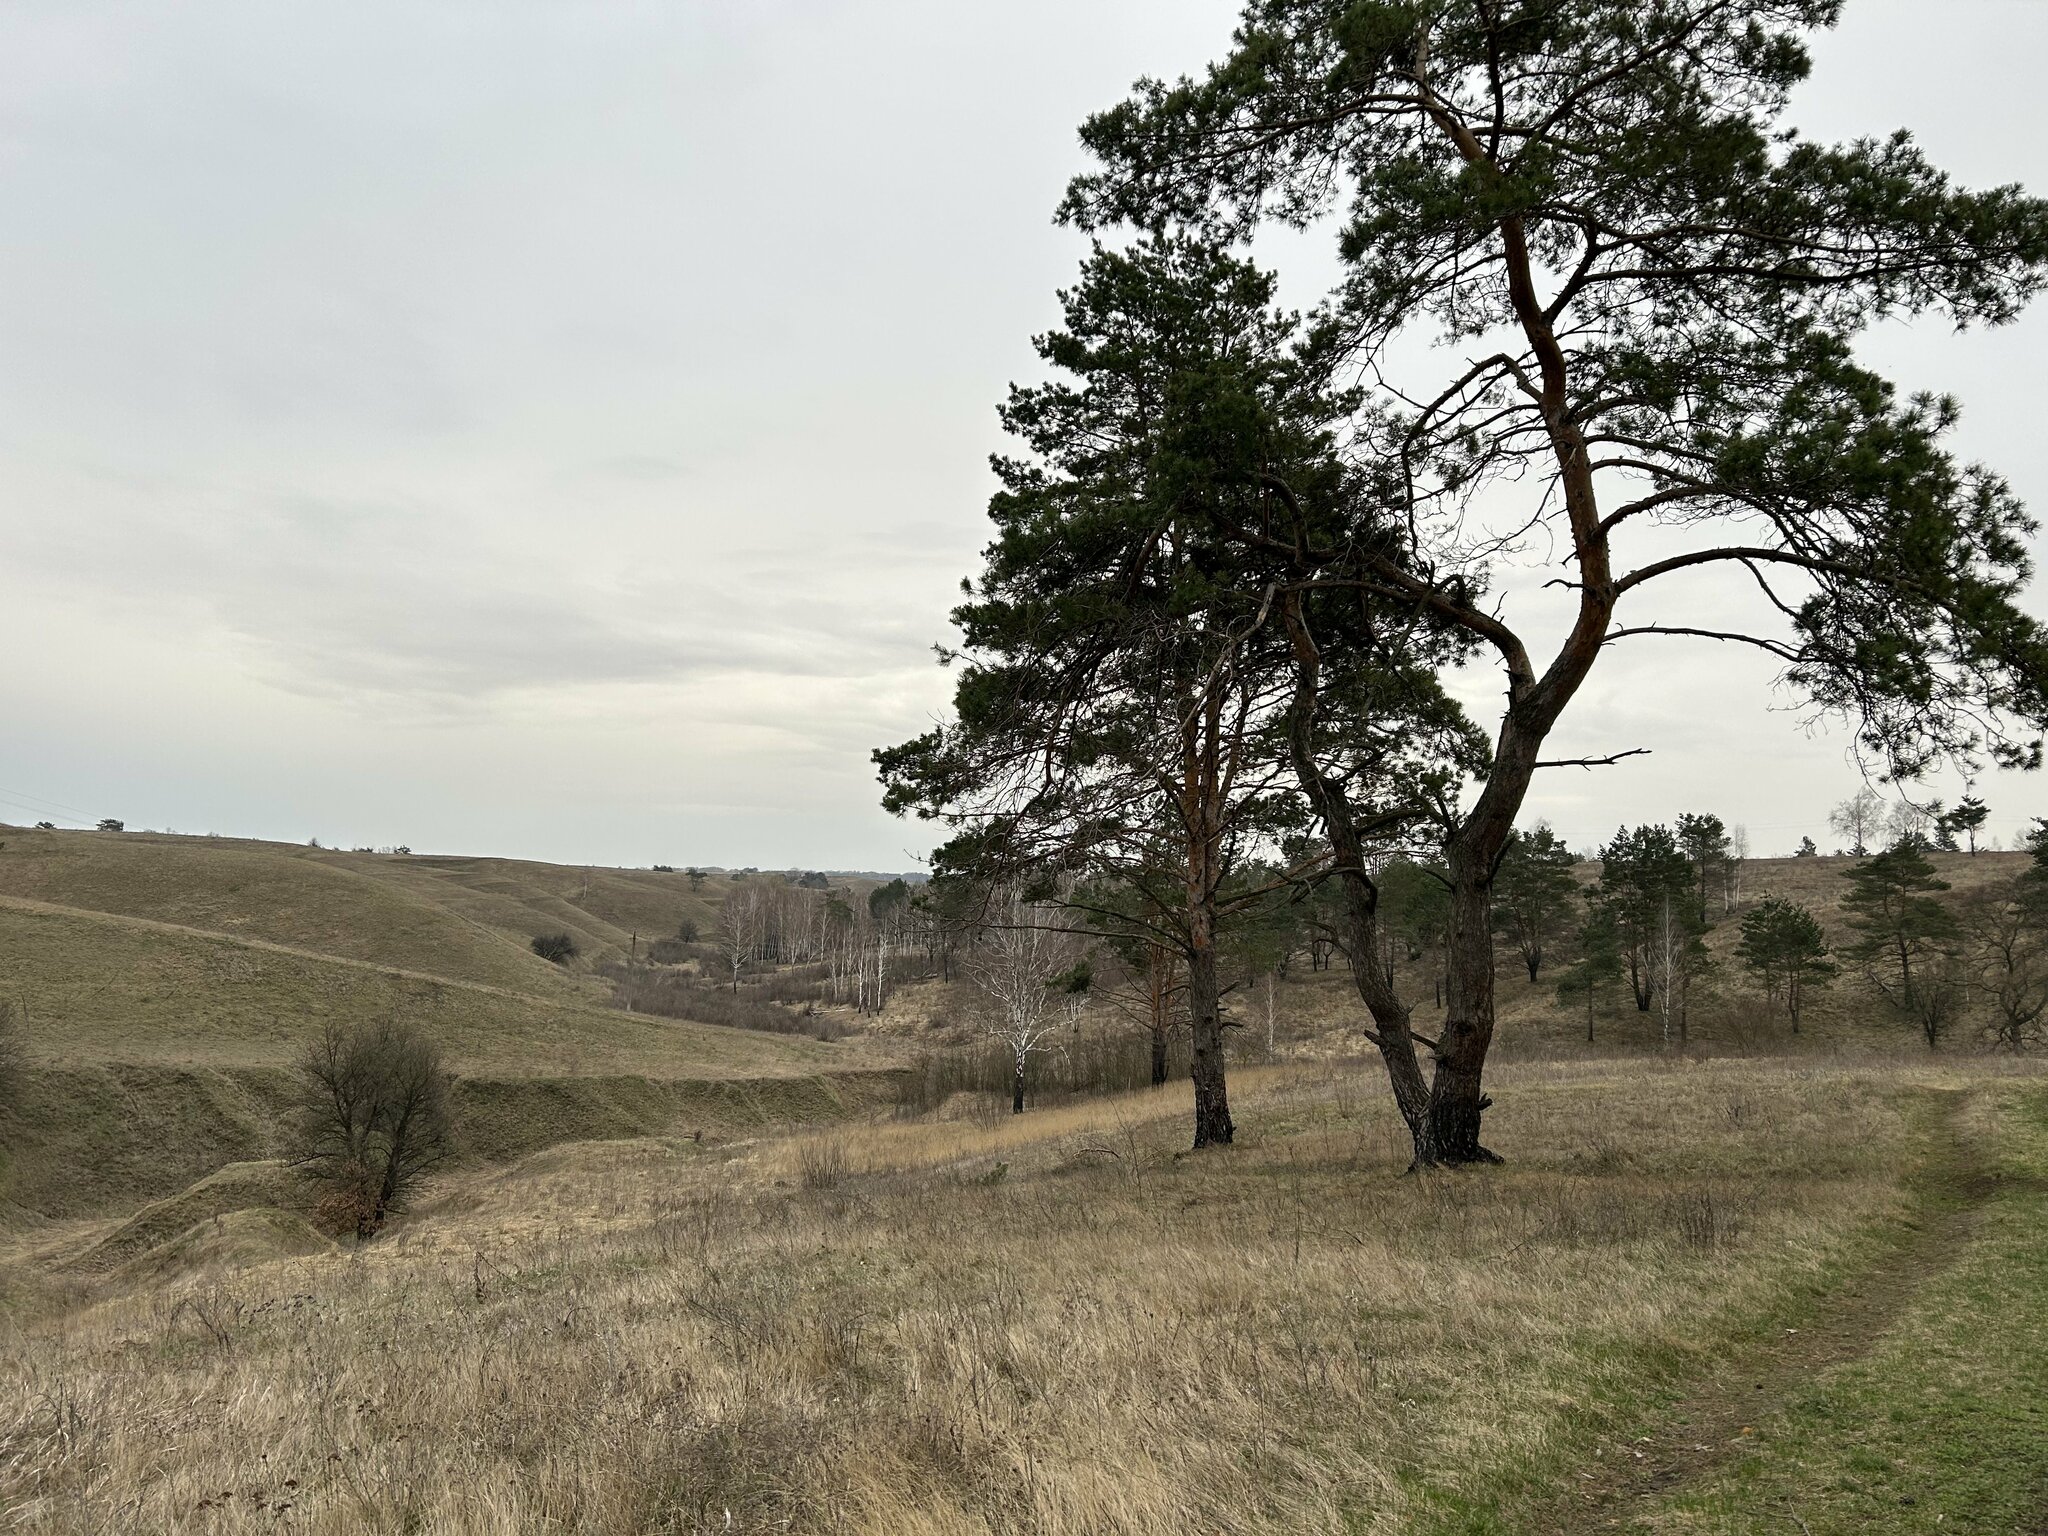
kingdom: Plantae
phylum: Tracheophyta
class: Pinopsida
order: Pinales
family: Pinaceae
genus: Pinus
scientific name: Pinus sylvestris
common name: Scots pine
